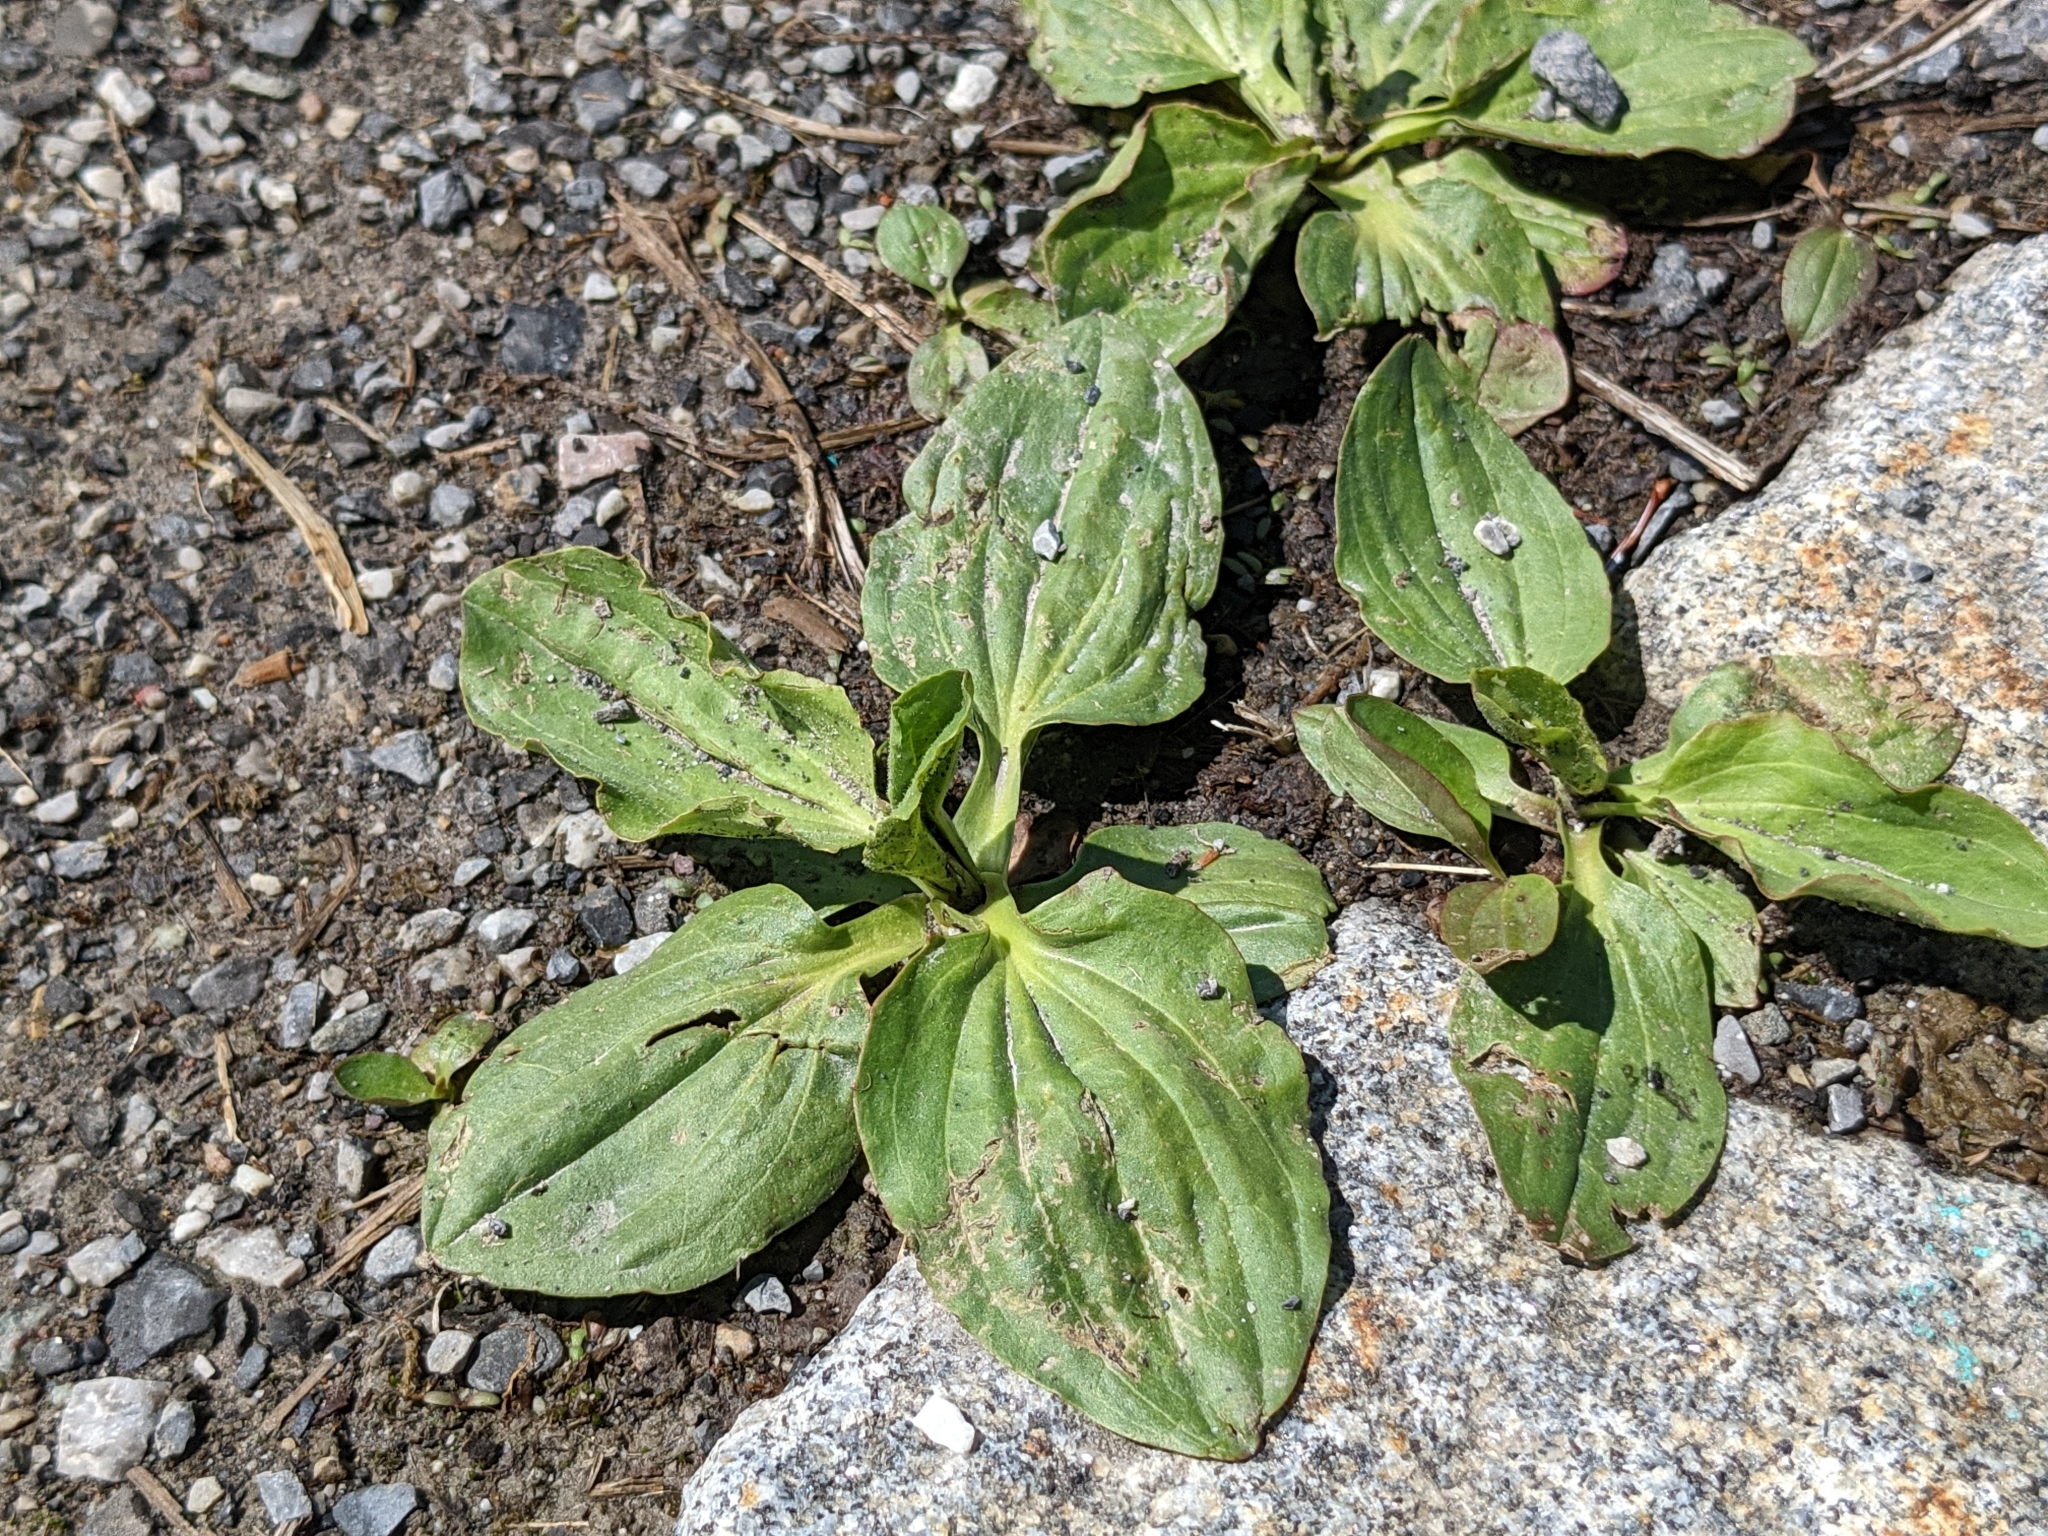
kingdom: Plantae
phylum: Tracheophyta
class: Magnoliopsida
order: Lamiales
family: Plantaginaceae
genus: Plantago
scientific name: Plantago major
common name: Common plantain
